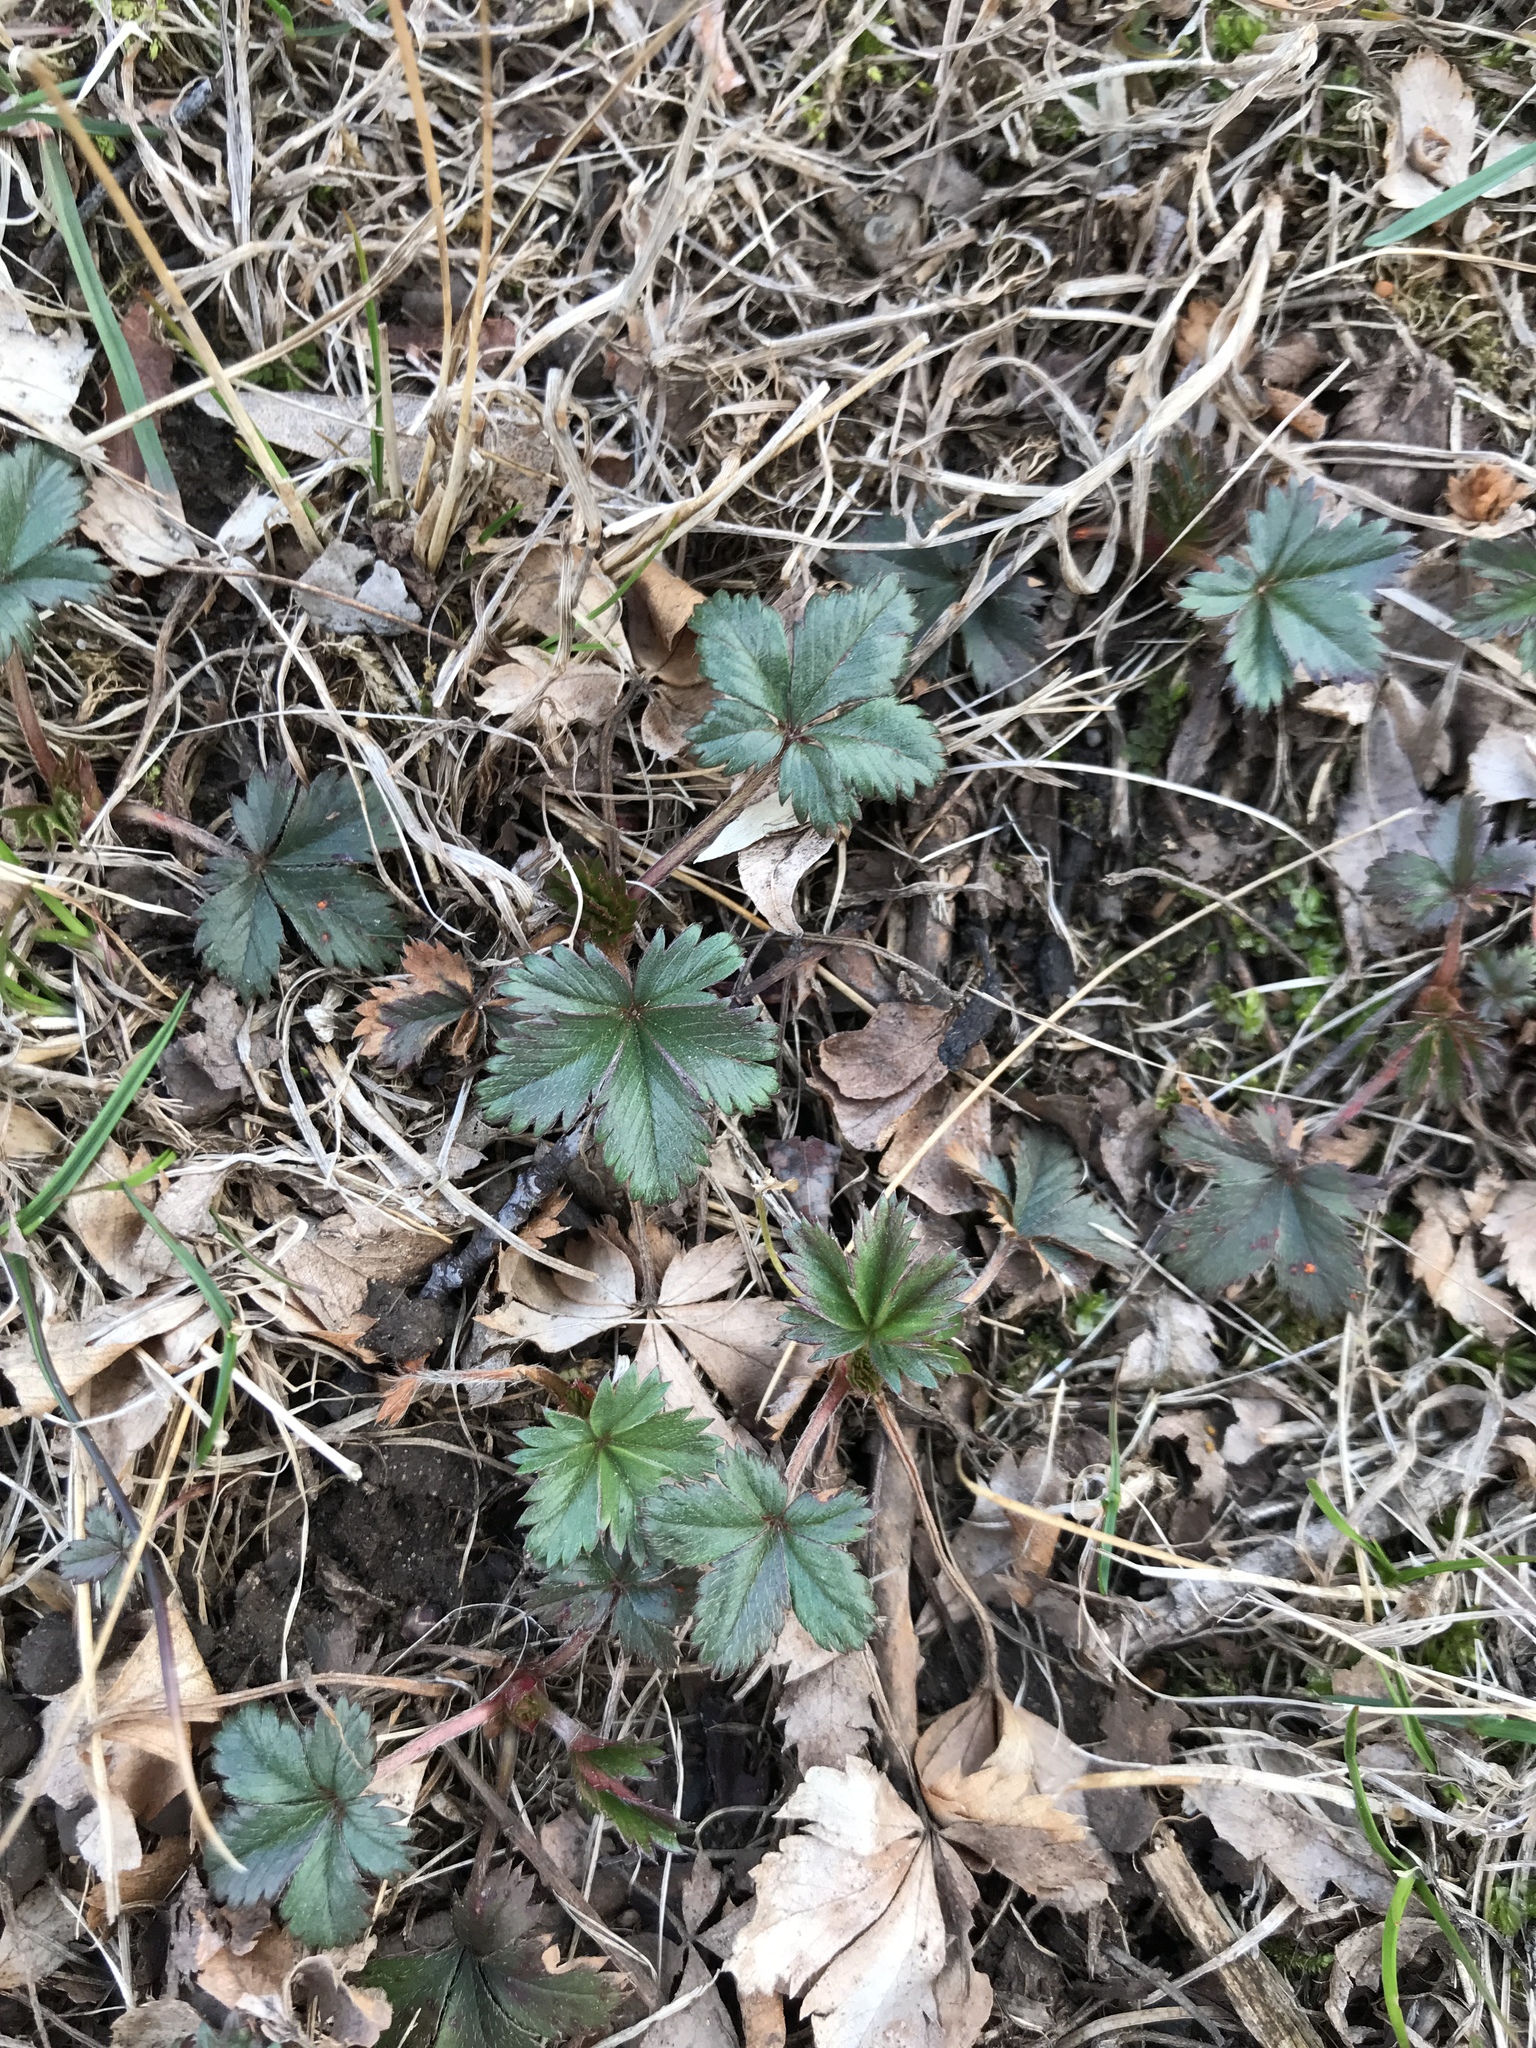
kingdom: Plantae
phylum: Tracheophyta
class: Magnoliopsida
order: Rosales
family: Rosaceae
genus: Potentilla
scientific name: Potentilla canadensis
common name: Canada cinquefoil
